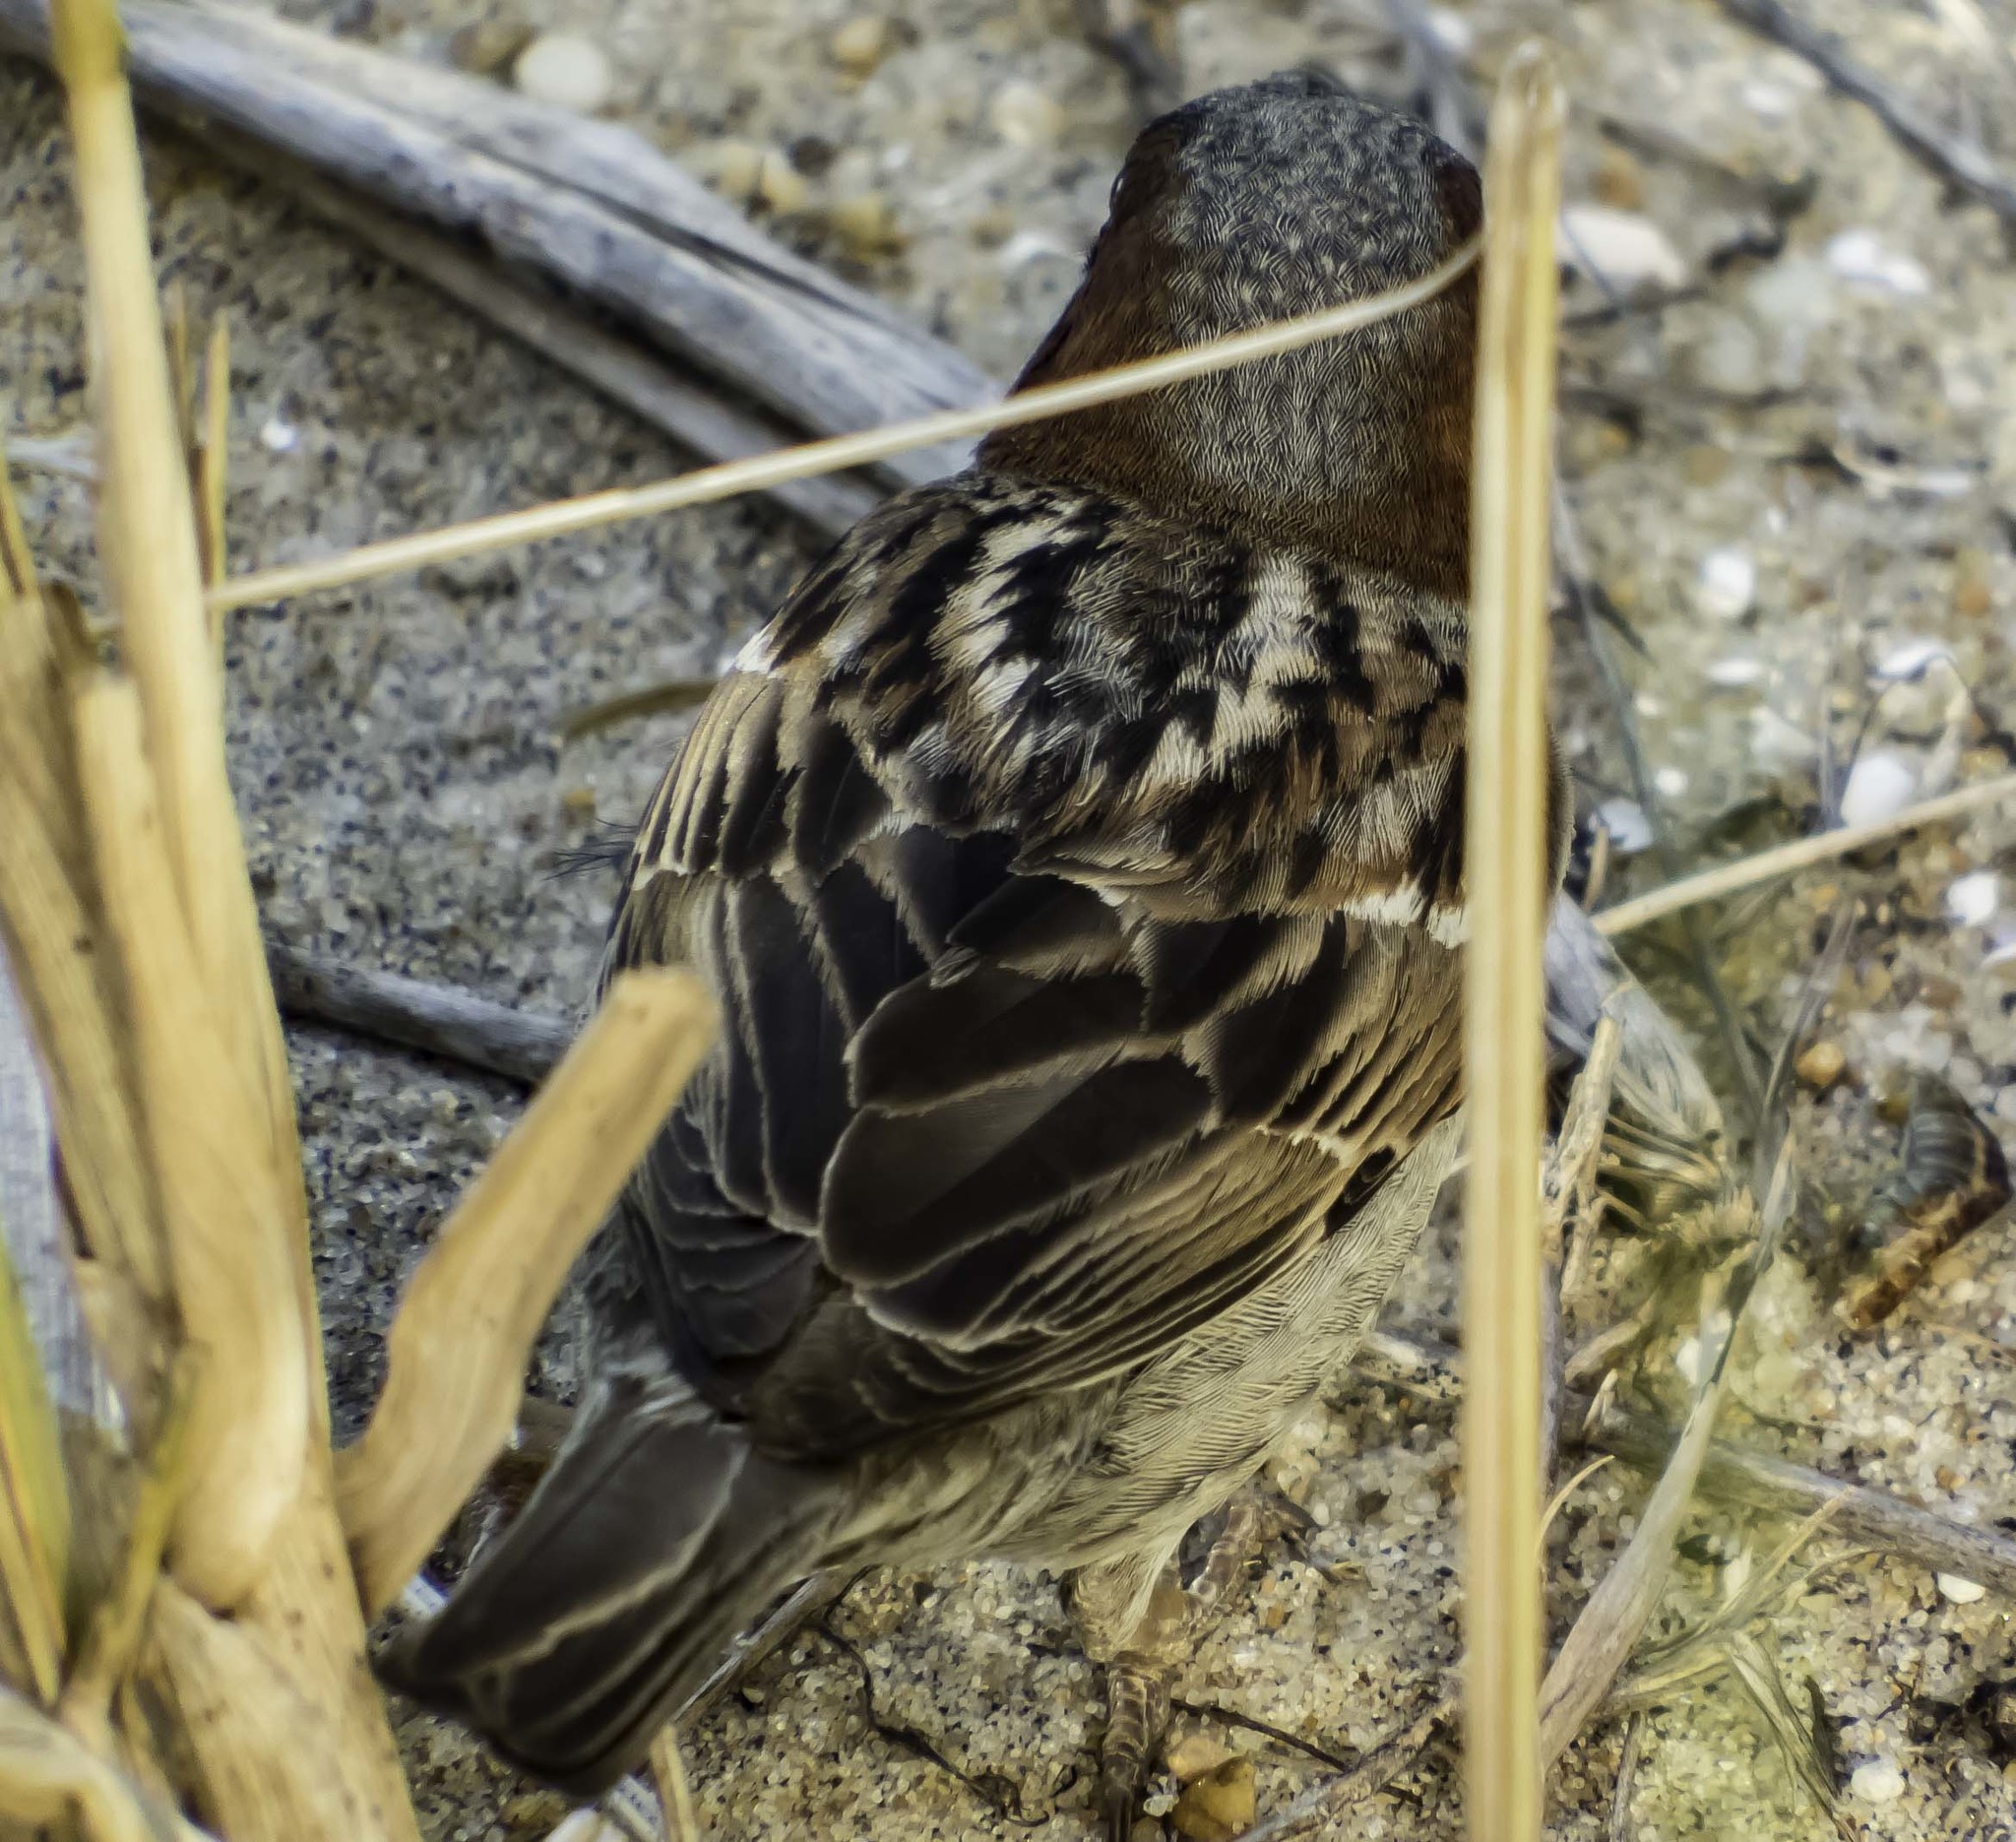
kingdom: Animalia
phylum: Chordata
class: Aves
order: Passeriformes
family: Passeridae
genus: Passer
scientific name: Passer domesticus
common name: House sparrow
